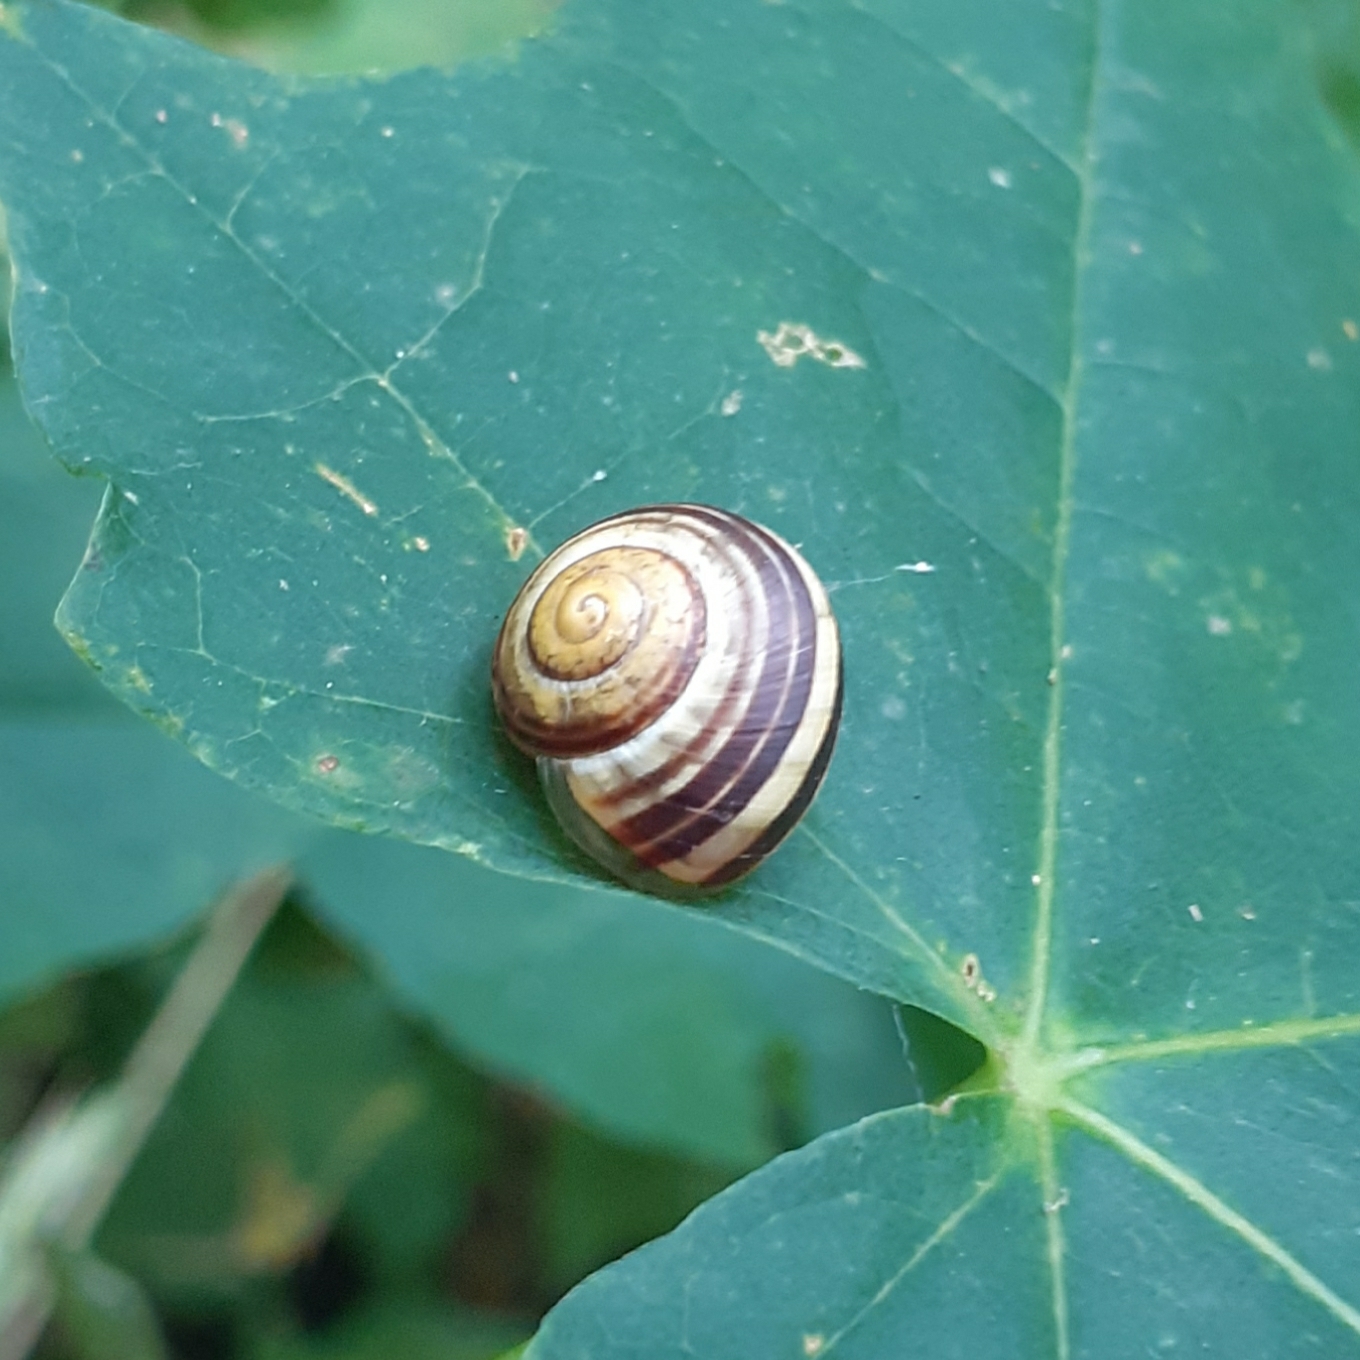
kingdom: Animalia
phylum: Mollusca
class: Gastropoda
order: Stylommatophora
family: Helicidae
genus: Cepaea
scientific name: Cepaea
